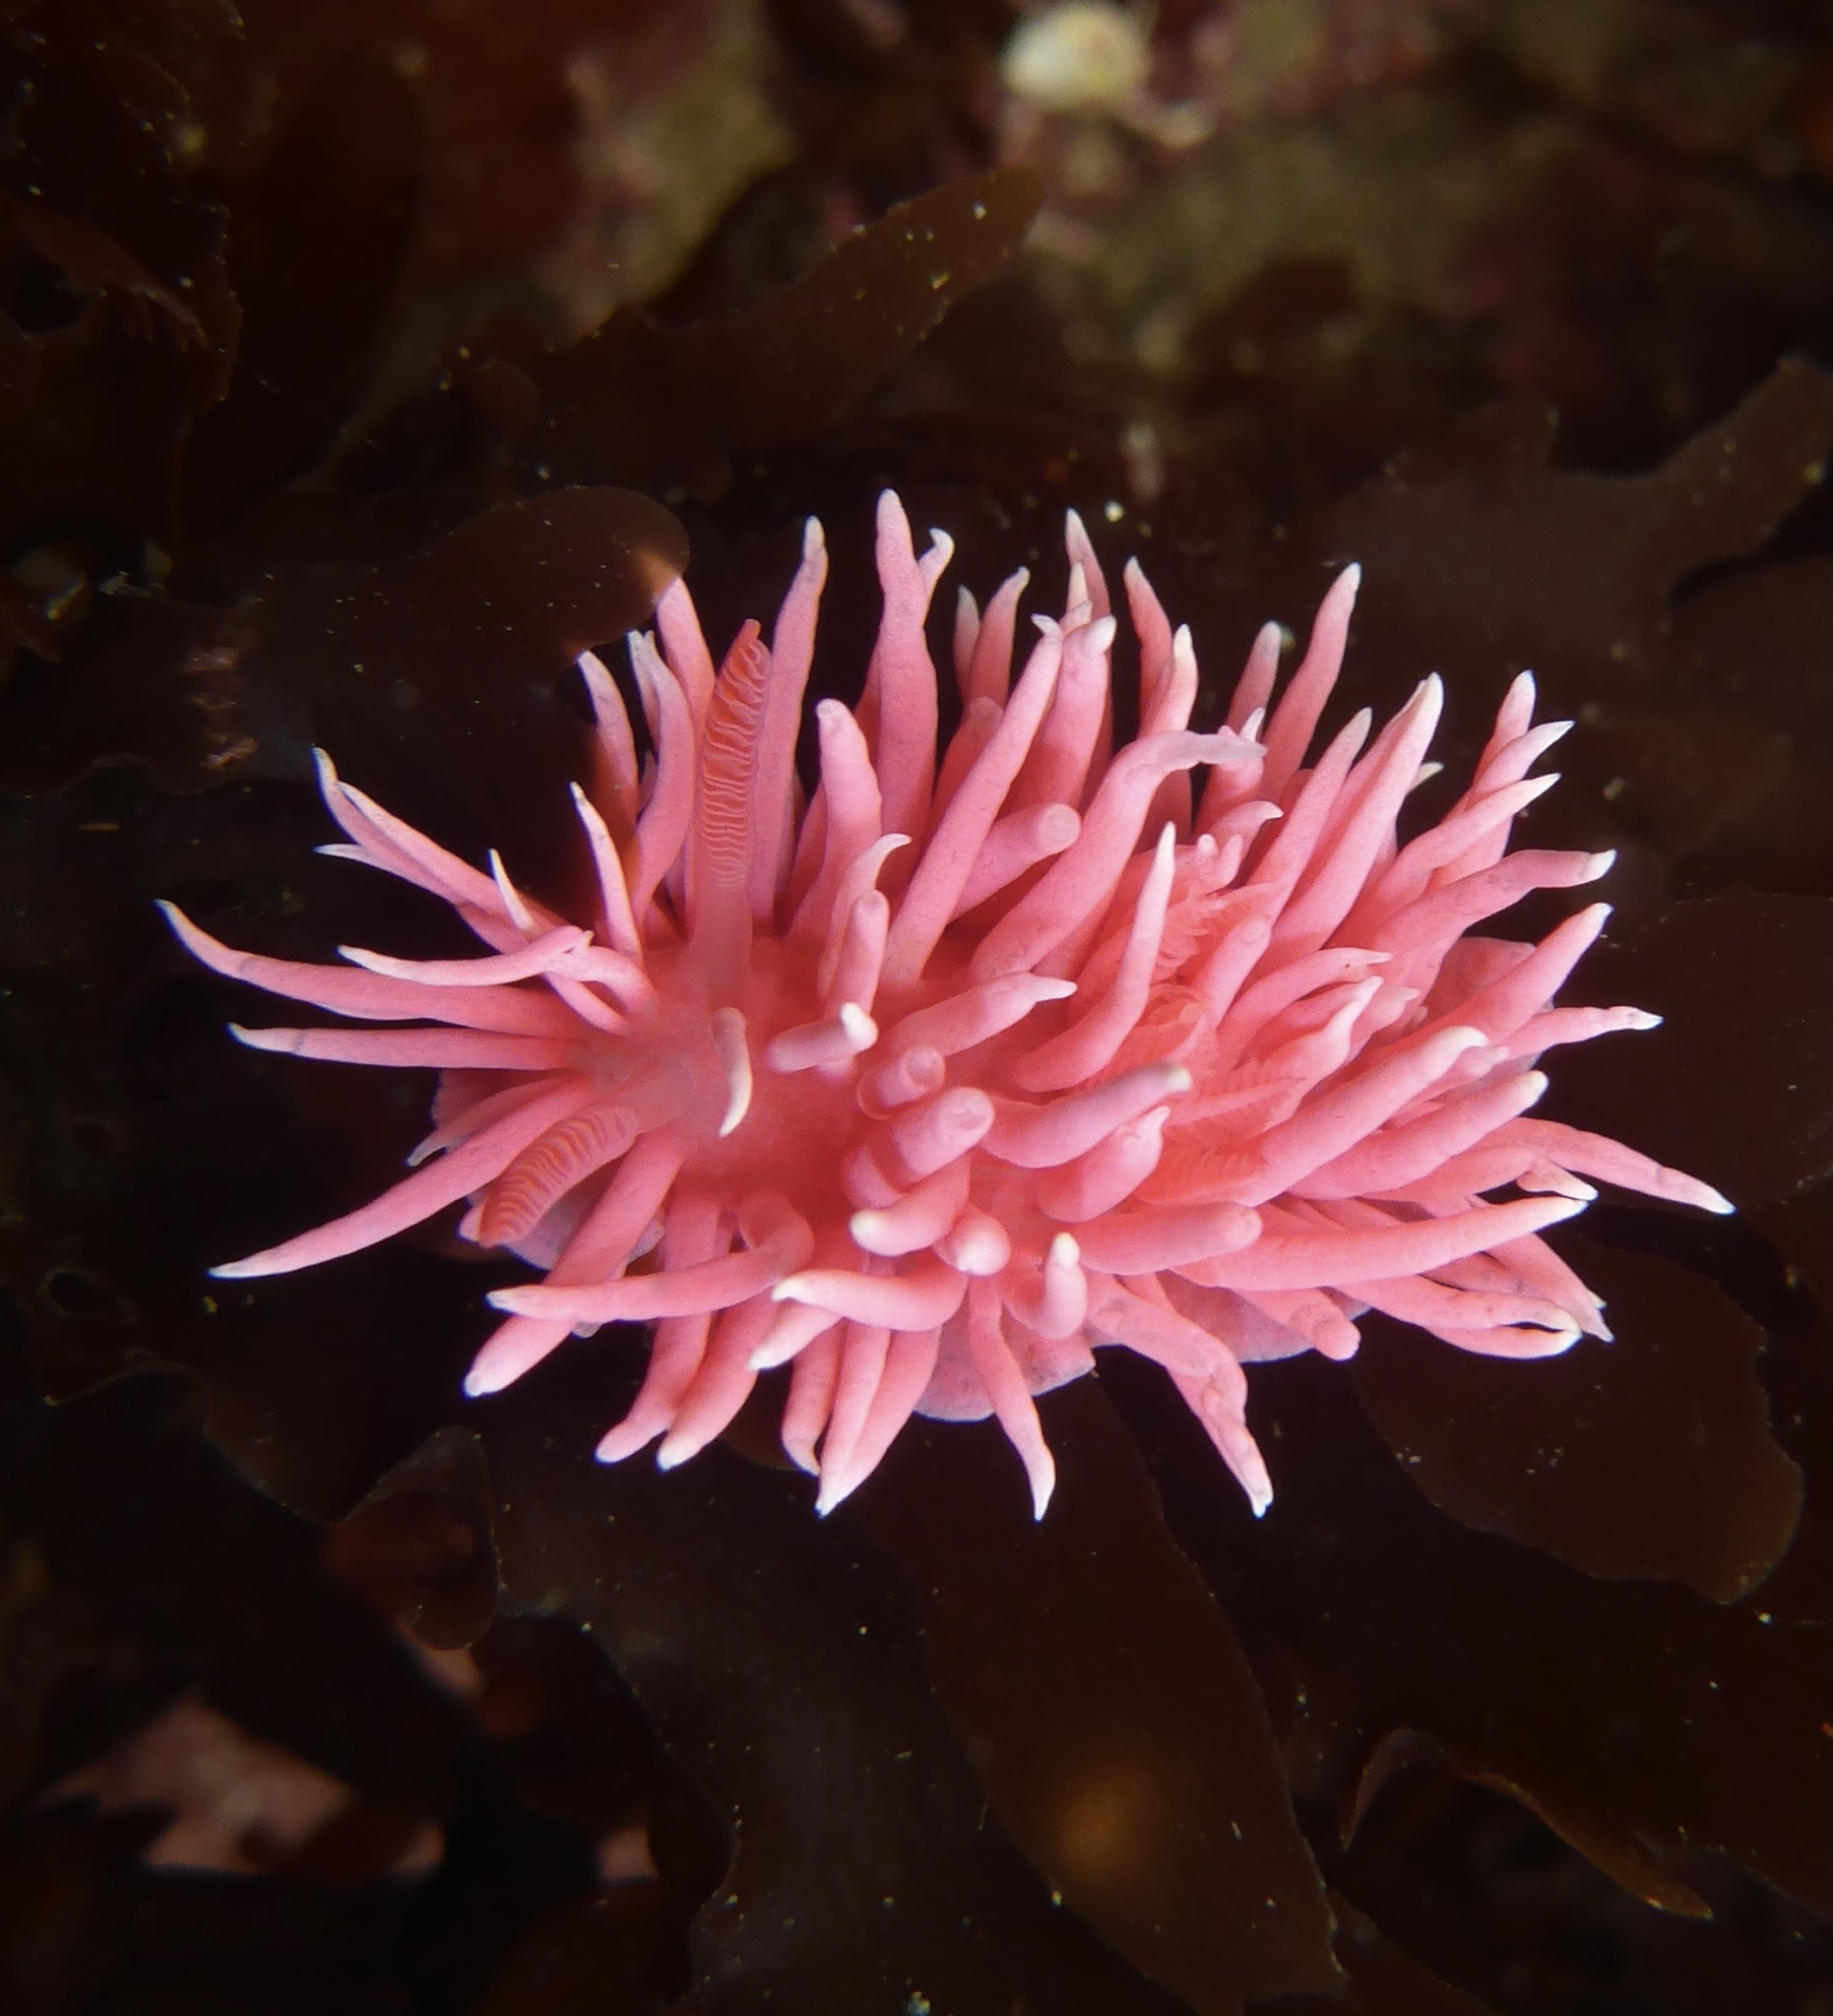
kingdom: Animalia
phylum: Mollusca
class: Gastropoda
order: Nudibranchia
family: Goniodorididae
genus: Okenia
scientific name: Okenia
